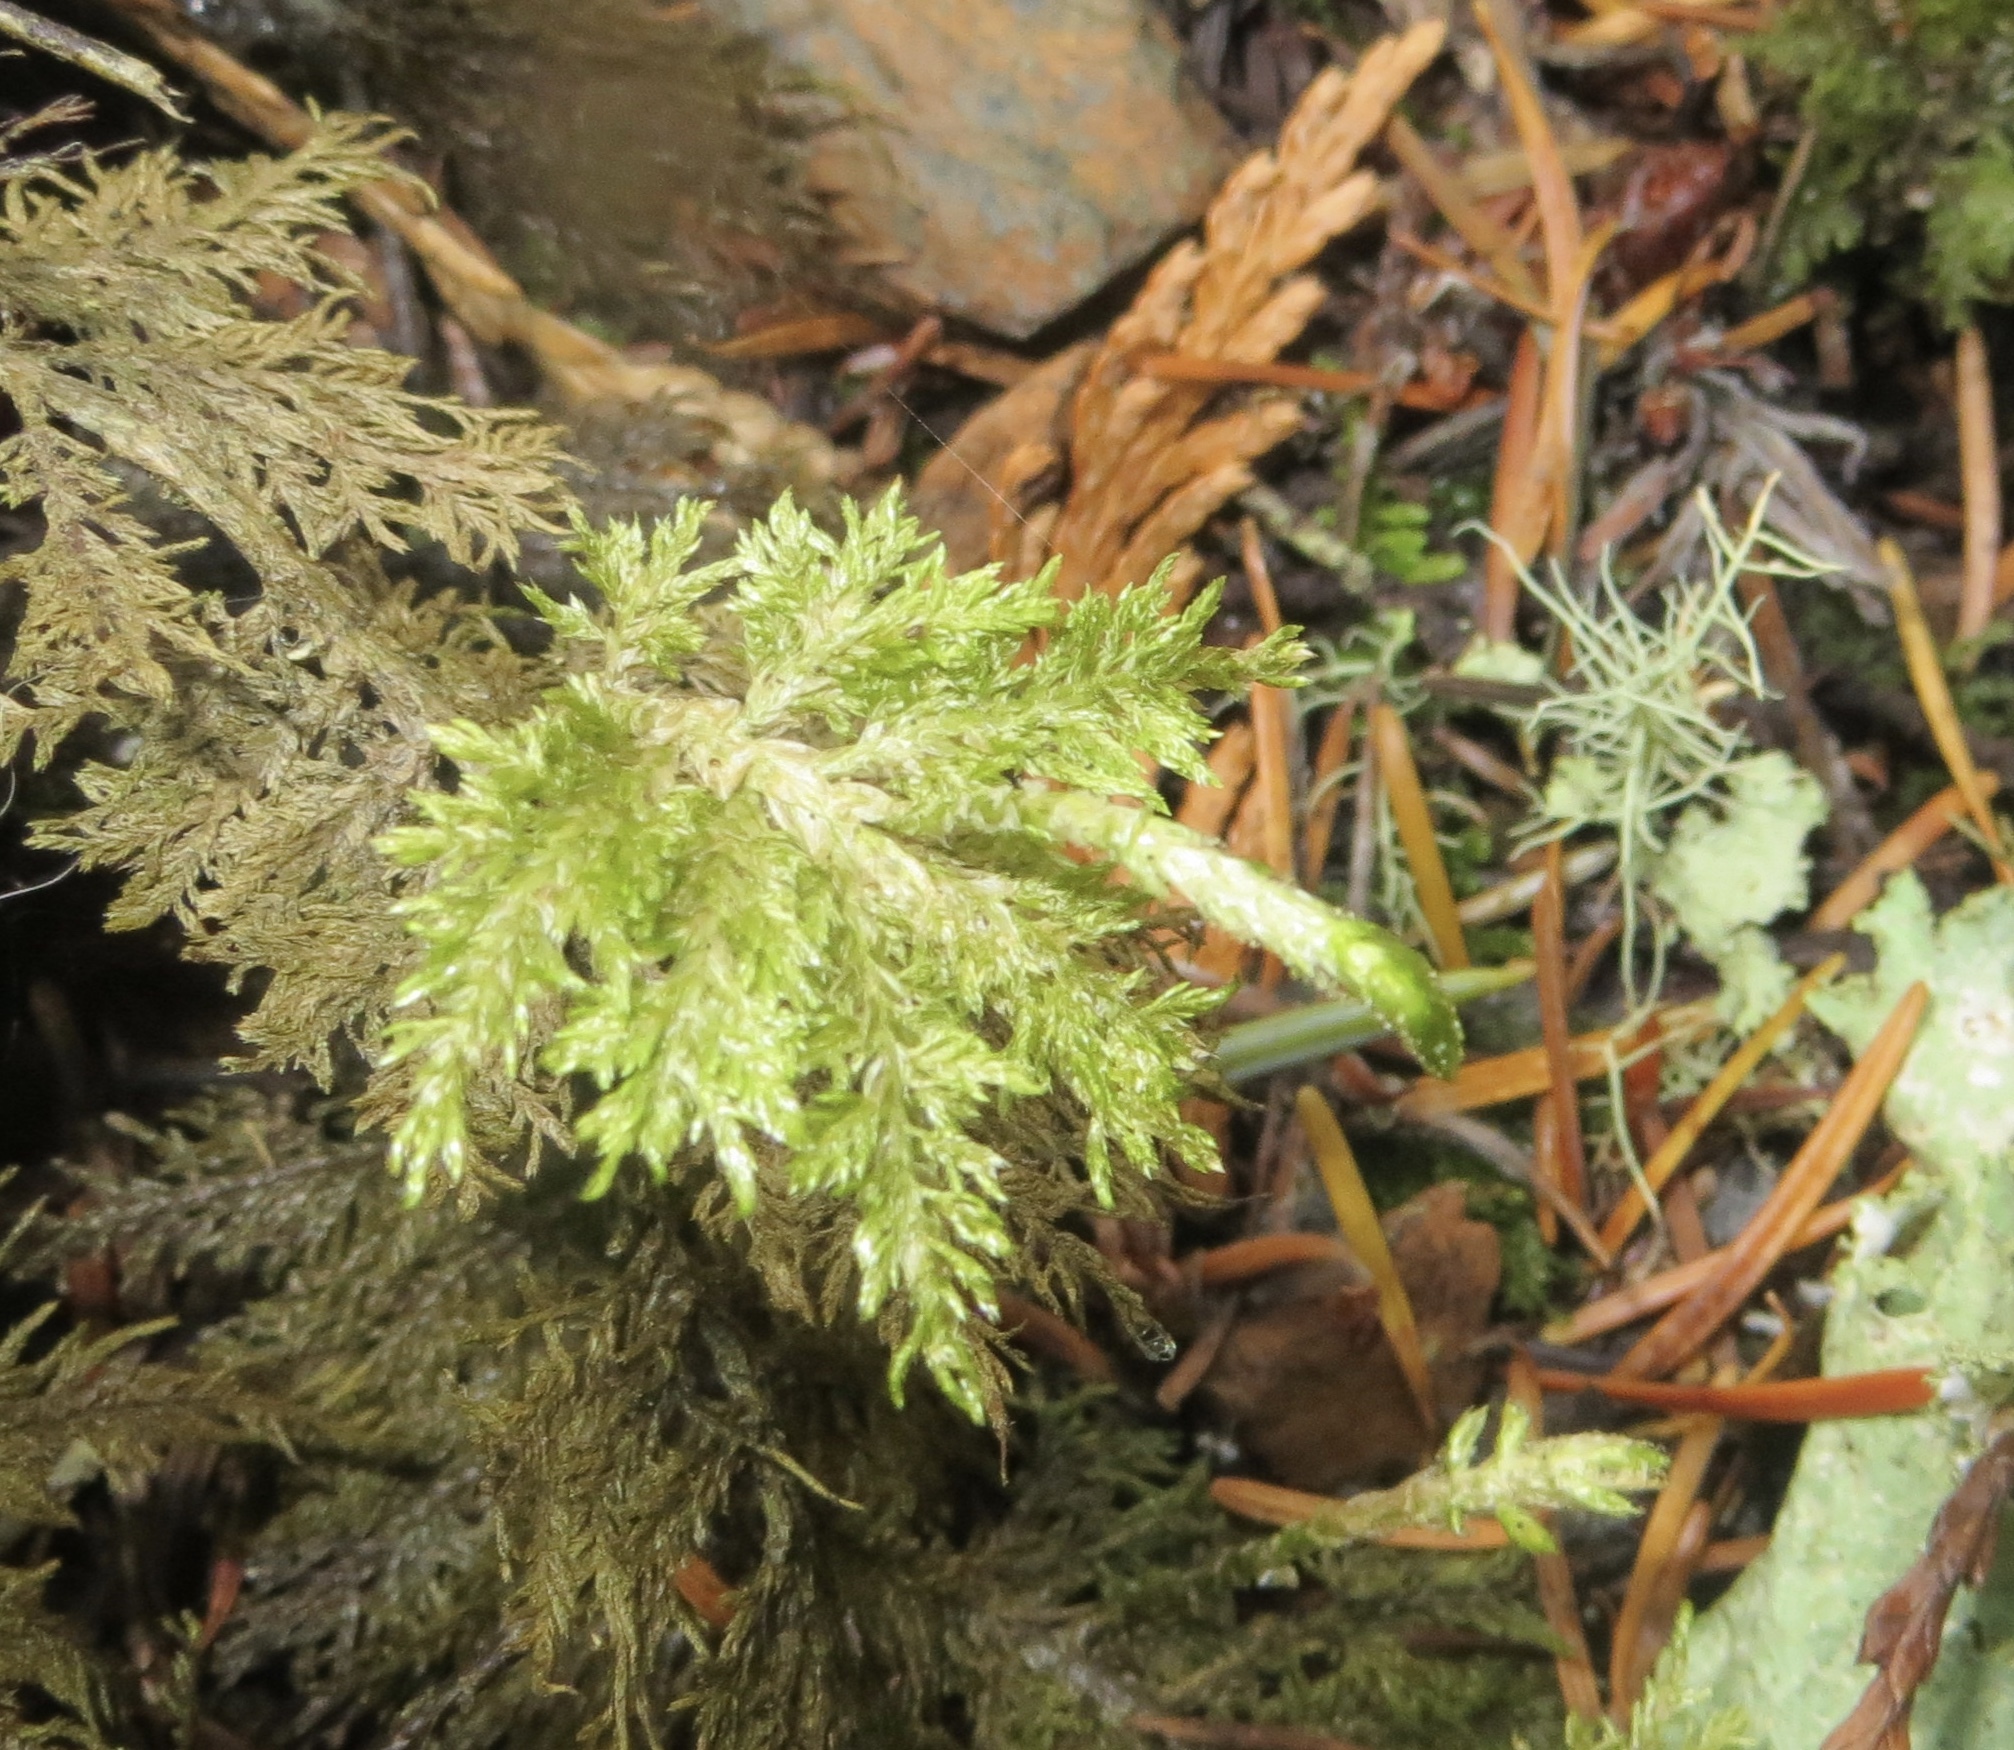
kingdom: Plantae
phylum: Bryophyta
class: Bryopsida
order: Hypnales
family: Hylocomiaceae
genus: Hylocomium
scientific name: Hylocomium splendens
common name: Stairstep moss
